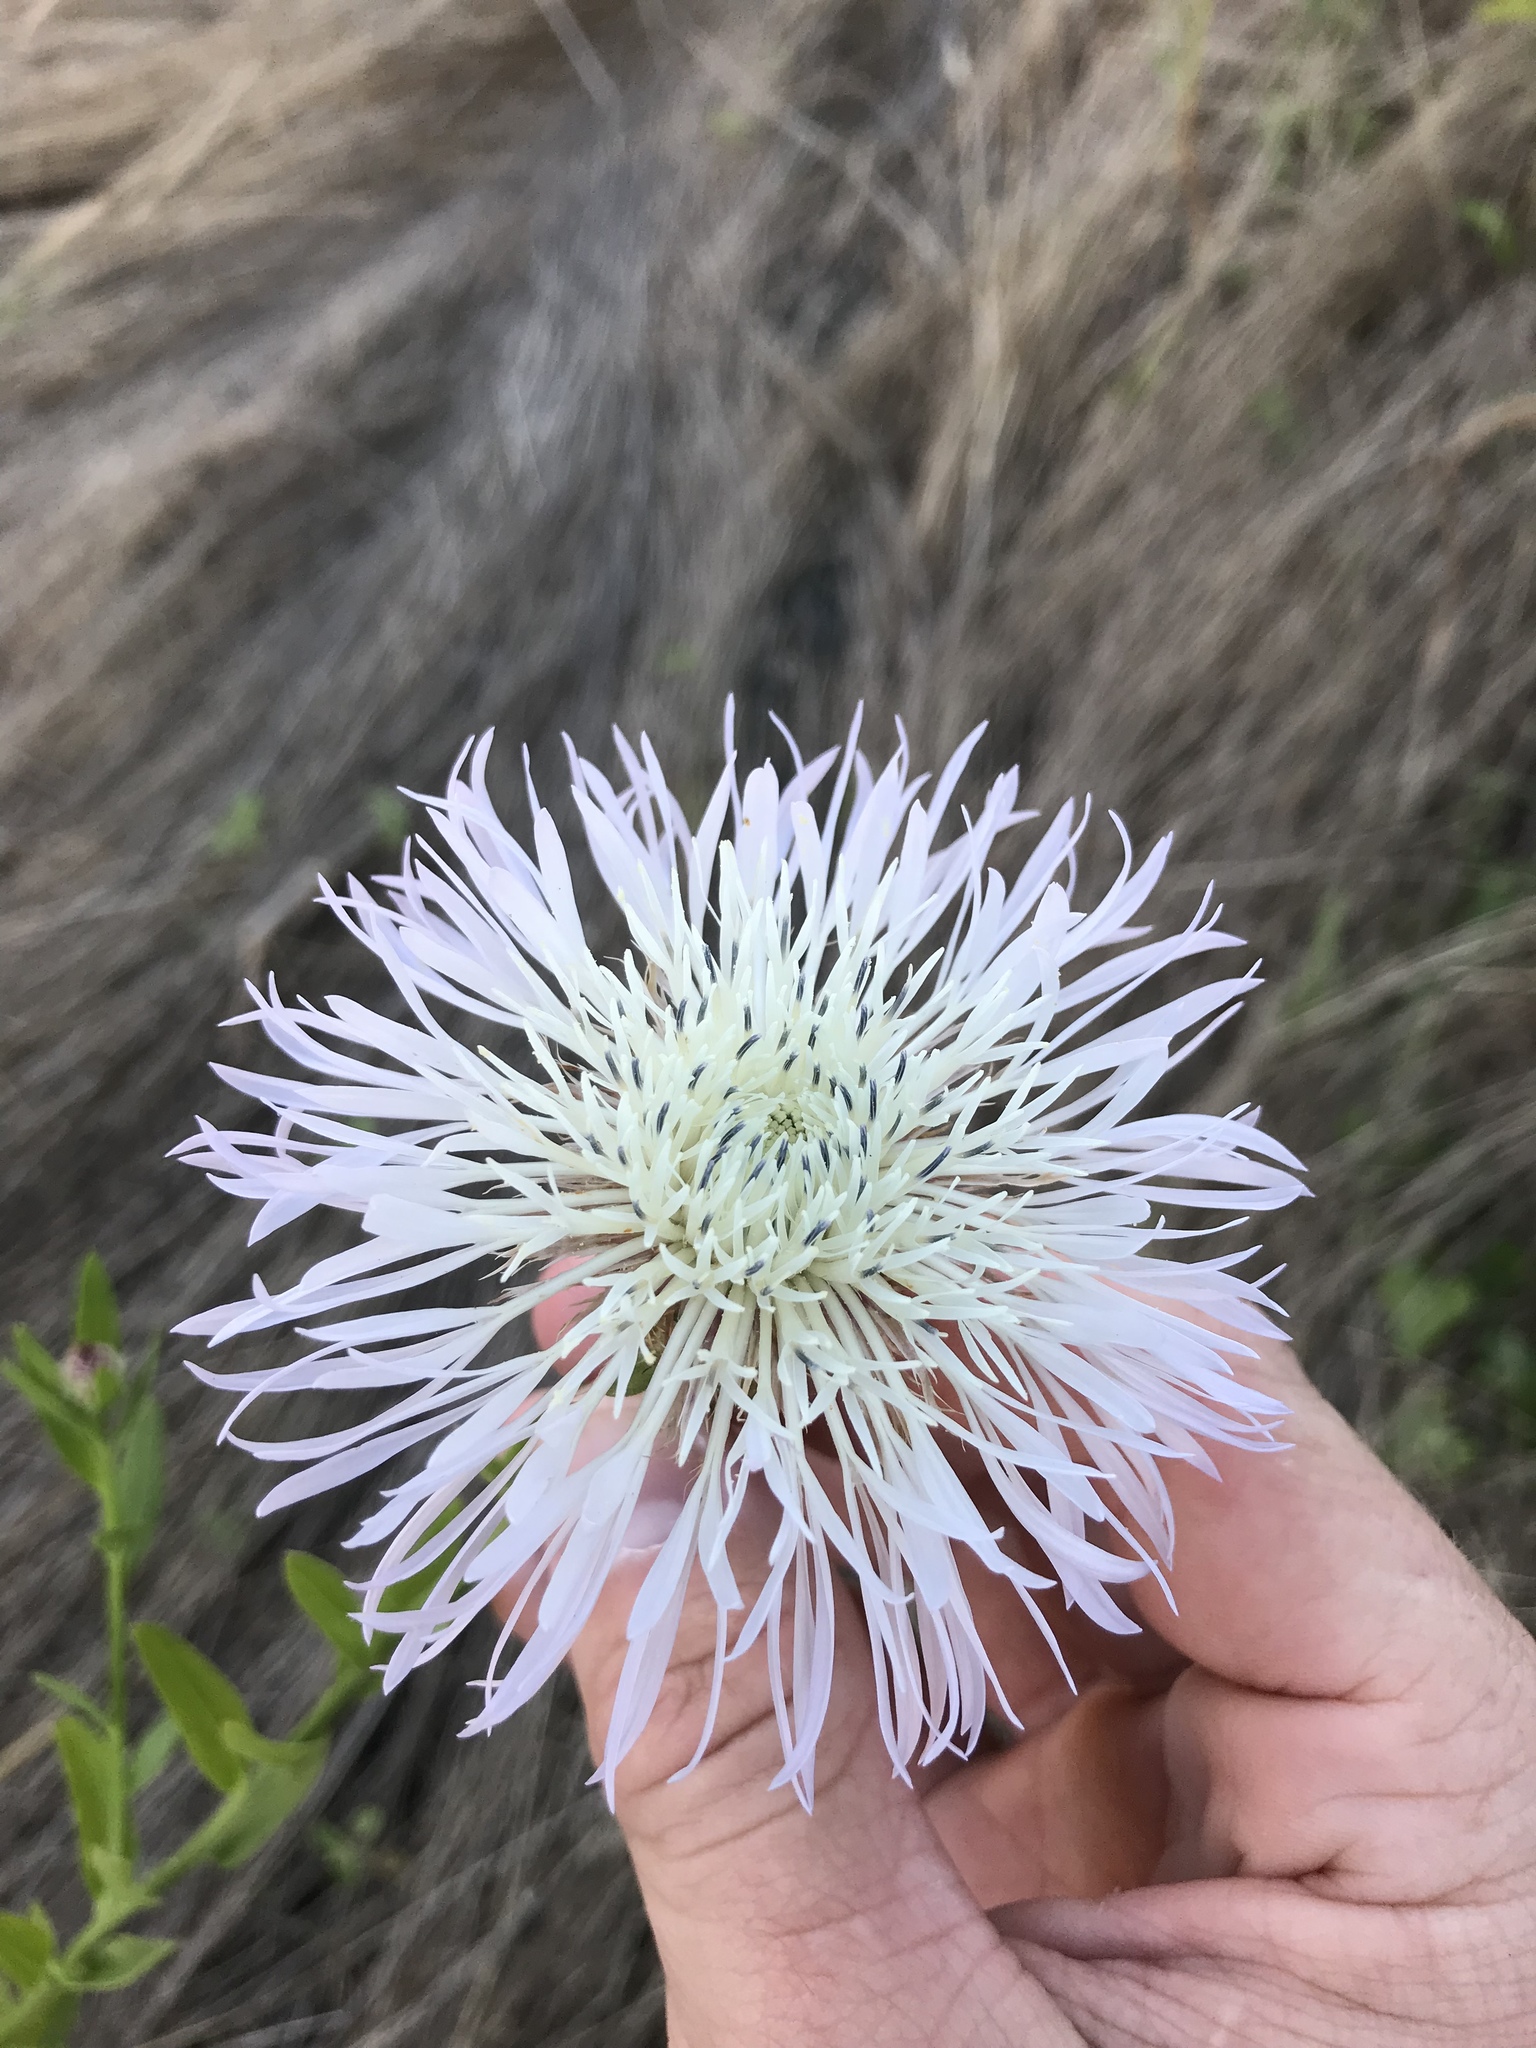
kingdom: Plantae
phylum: Tracheophyta
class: Magnoliopsida
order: Asterales
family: Asteraceae
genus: Plectocephalus
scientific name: Plectocephalus americanus
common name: American basket-flower
